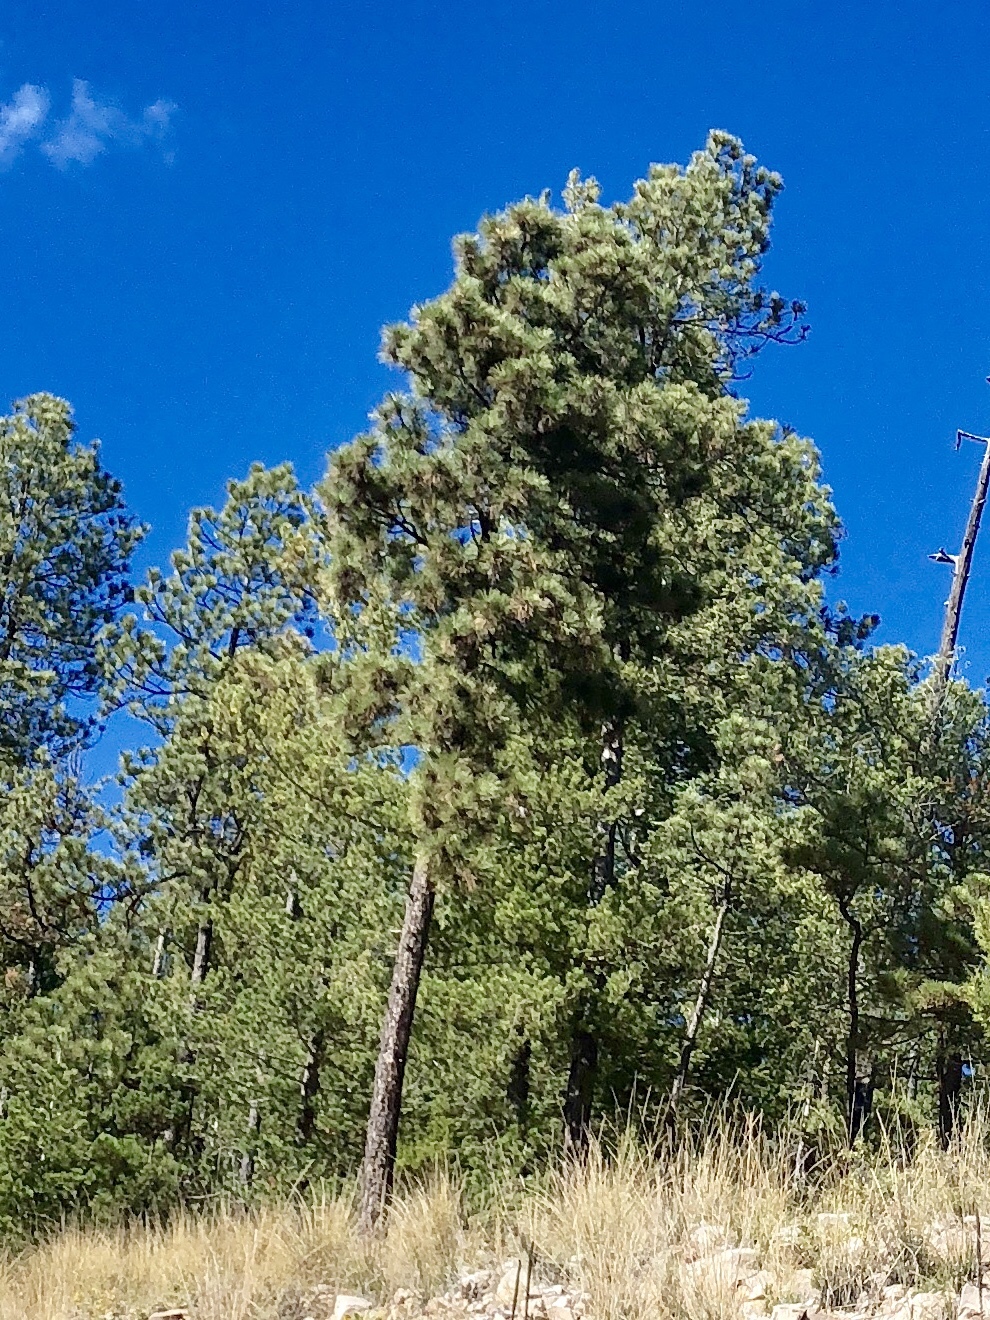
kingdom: Plantae
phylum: Tracheophyta
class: Pinopsida
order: Pinales
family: Pinaceae
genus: Pinus
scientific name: Pinus ponderosa
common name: Western yellow-pine
